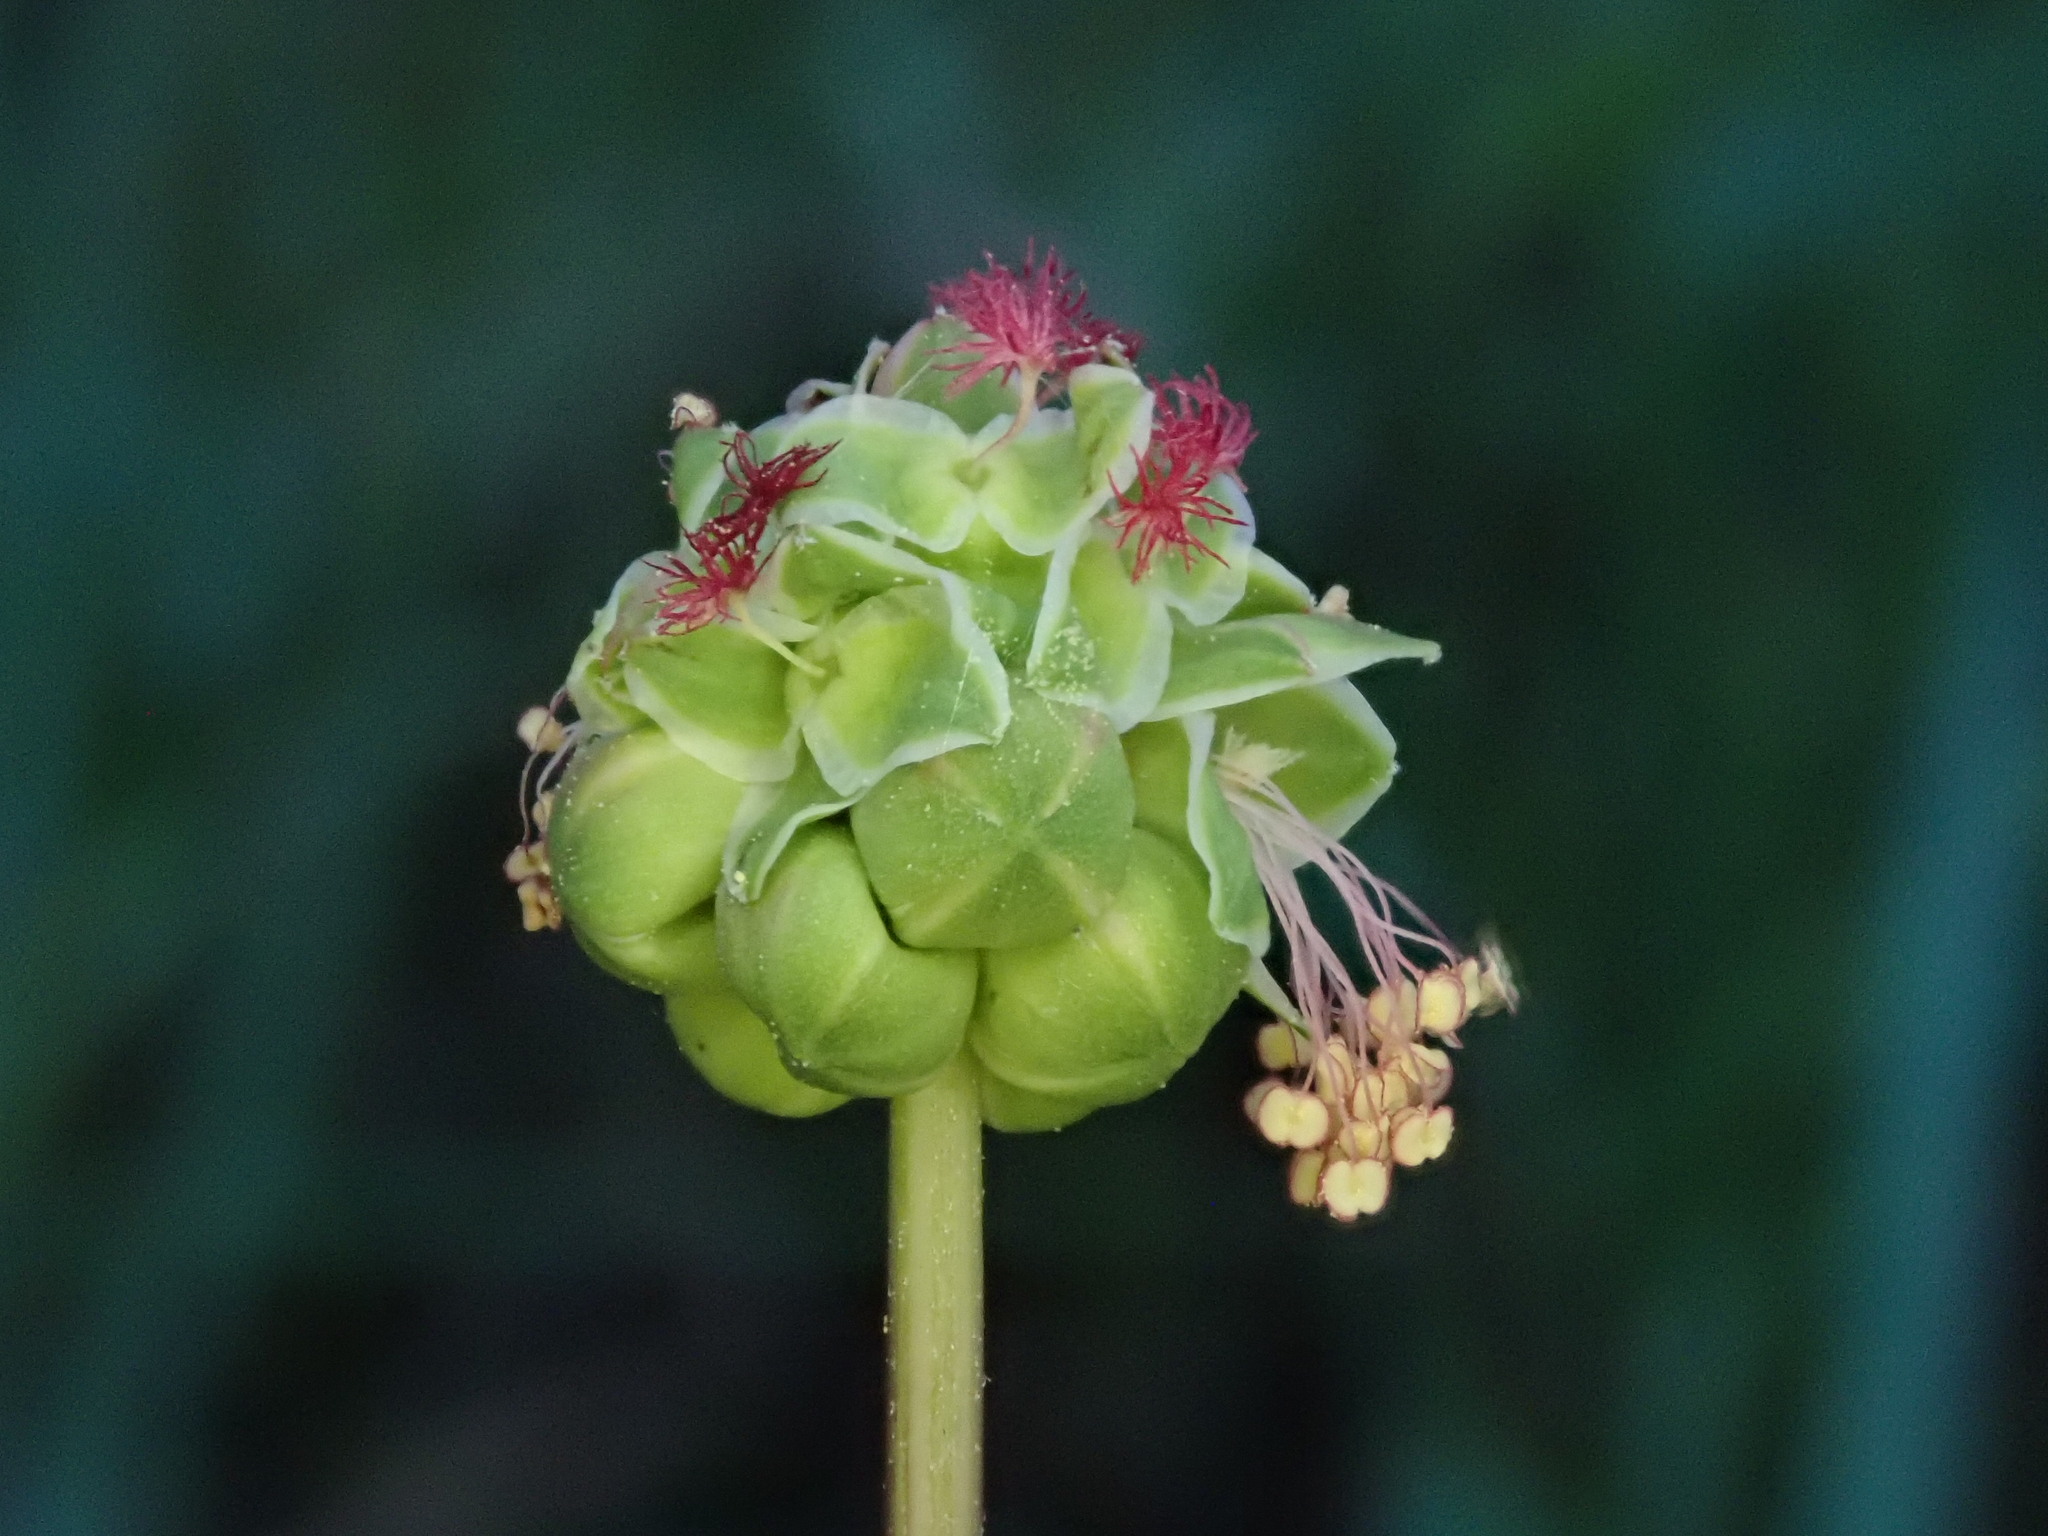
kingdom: Plantae
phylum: Tracheophyta
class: Magnoliopsida
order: Rosales
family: Rosaceae
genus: Poterium
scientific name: Poterium sanguisorba
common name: Salad burnet
